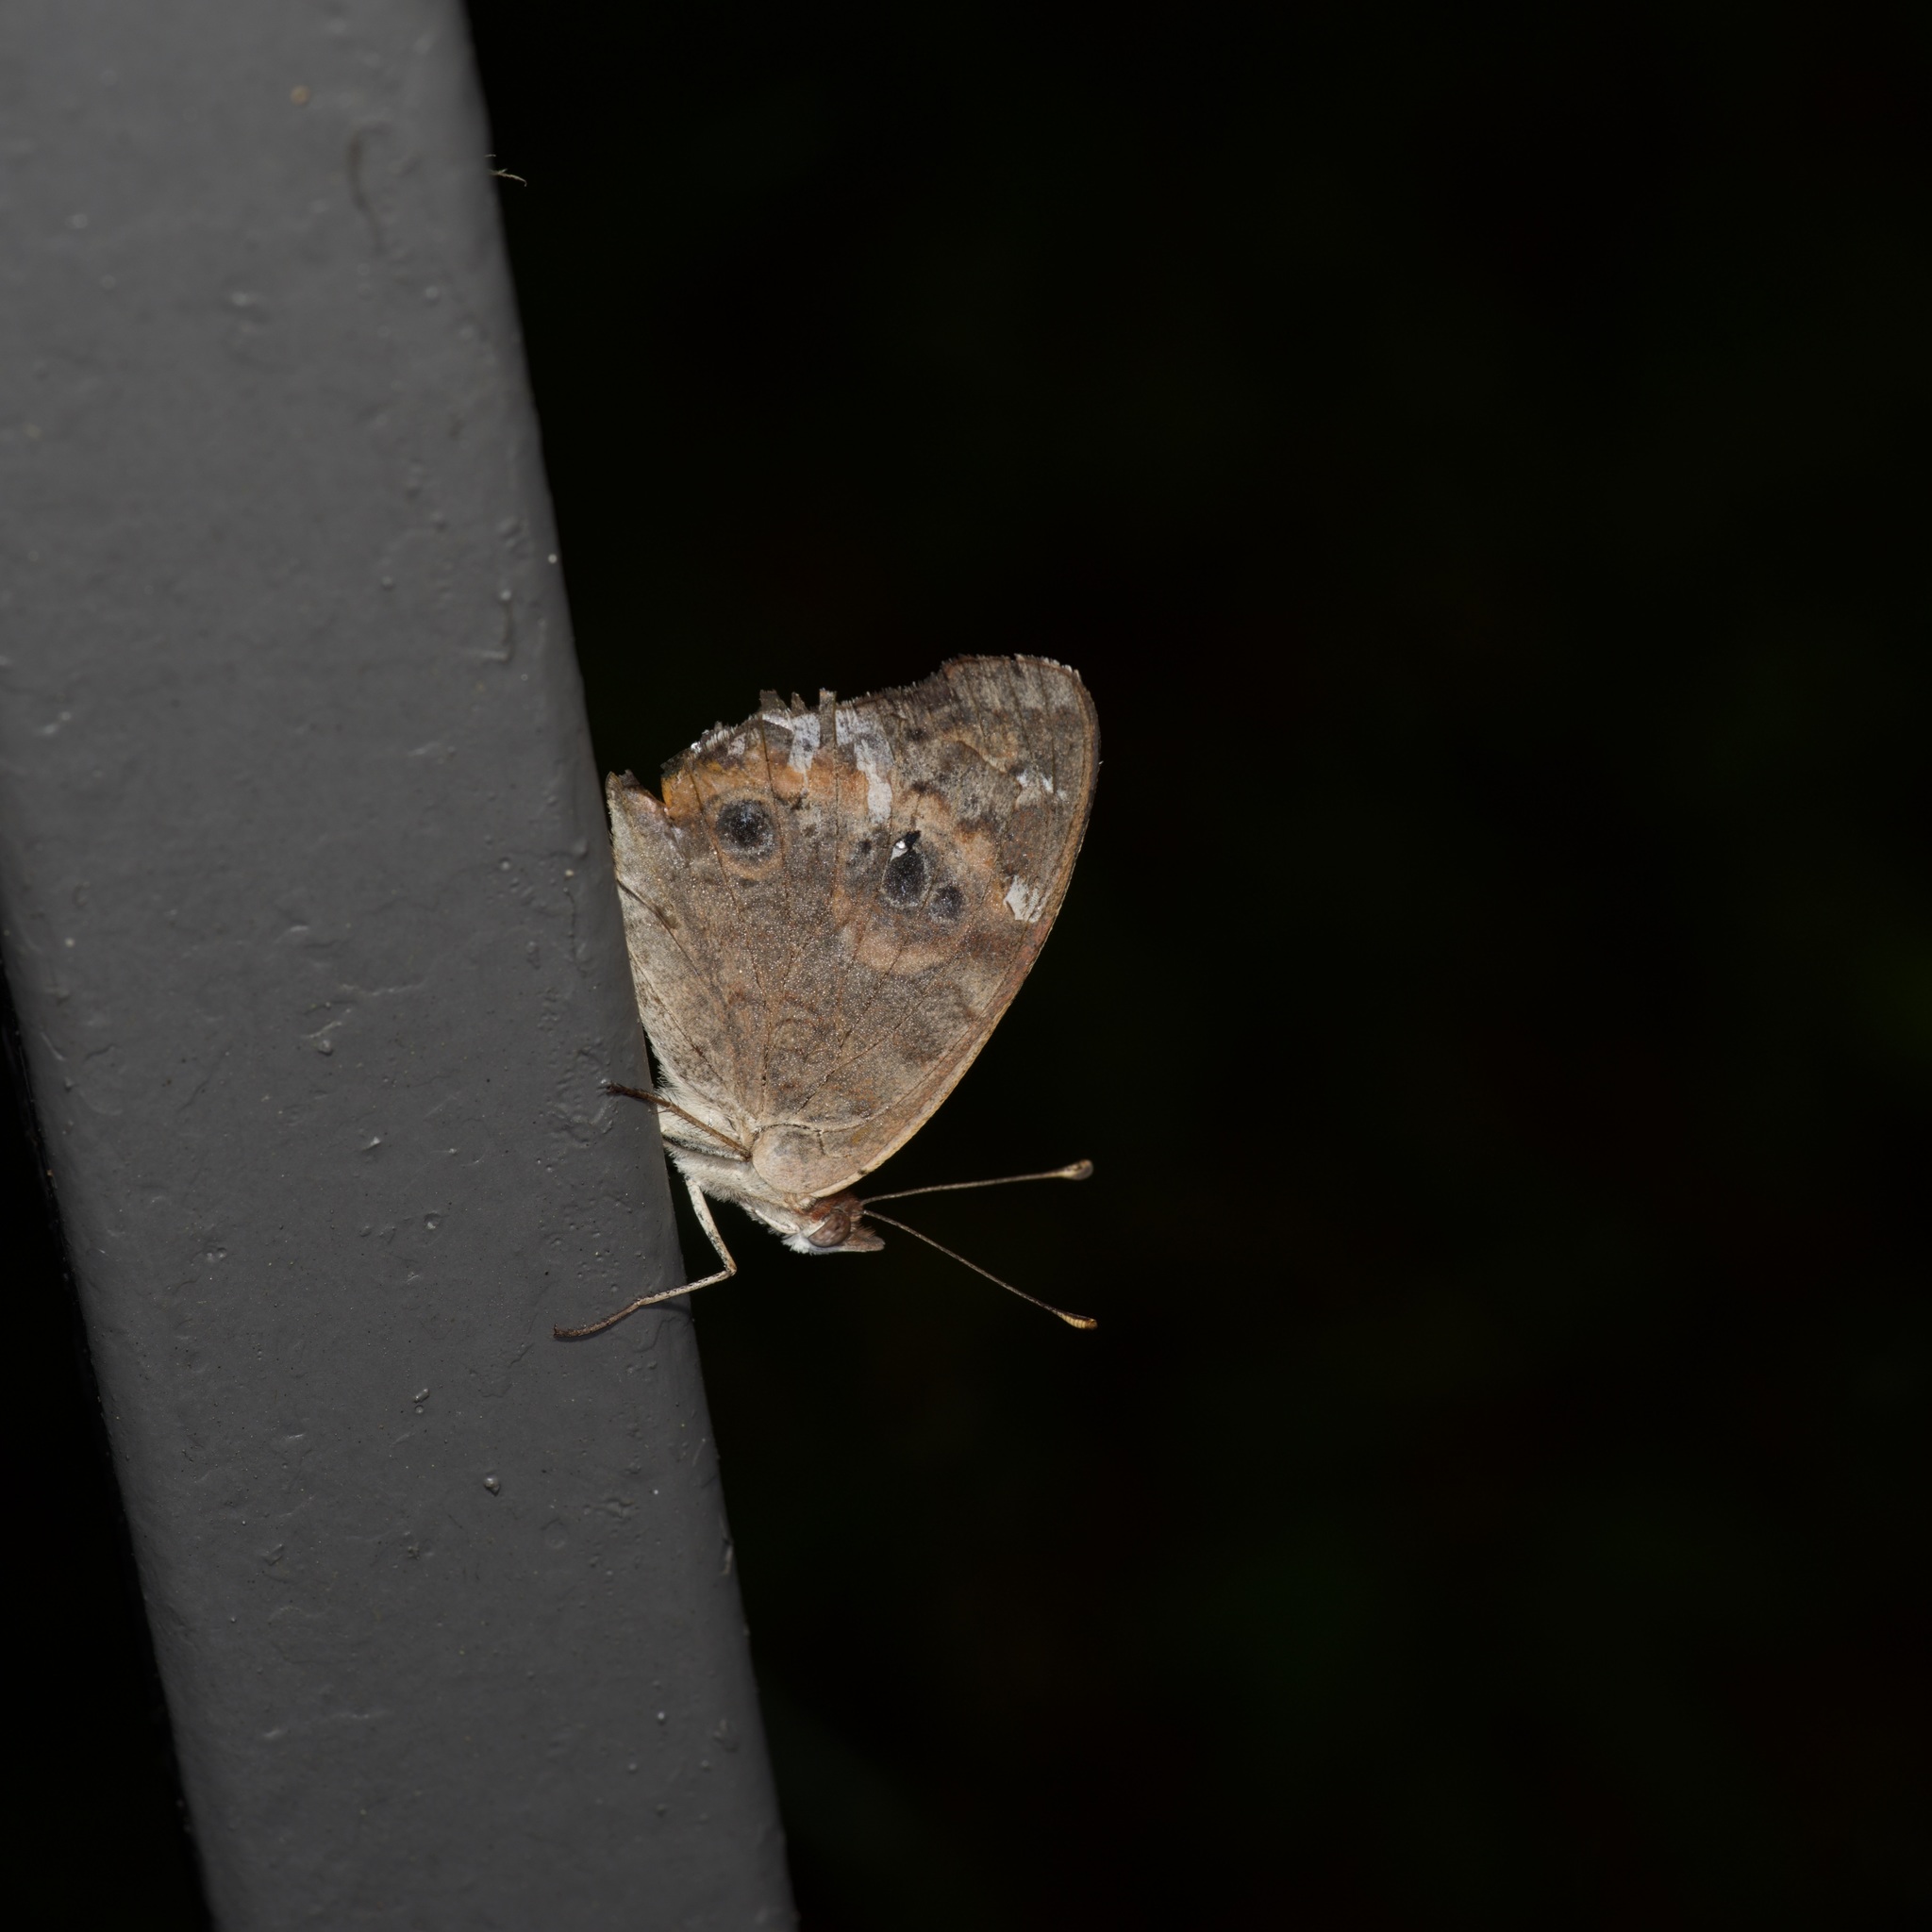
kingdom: Animalia
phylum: Arthropoda
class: Insecta
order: Lepidoptera
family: Nymphalidae
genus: Junonia
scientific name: Junonia coenia
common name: Common buckeye
